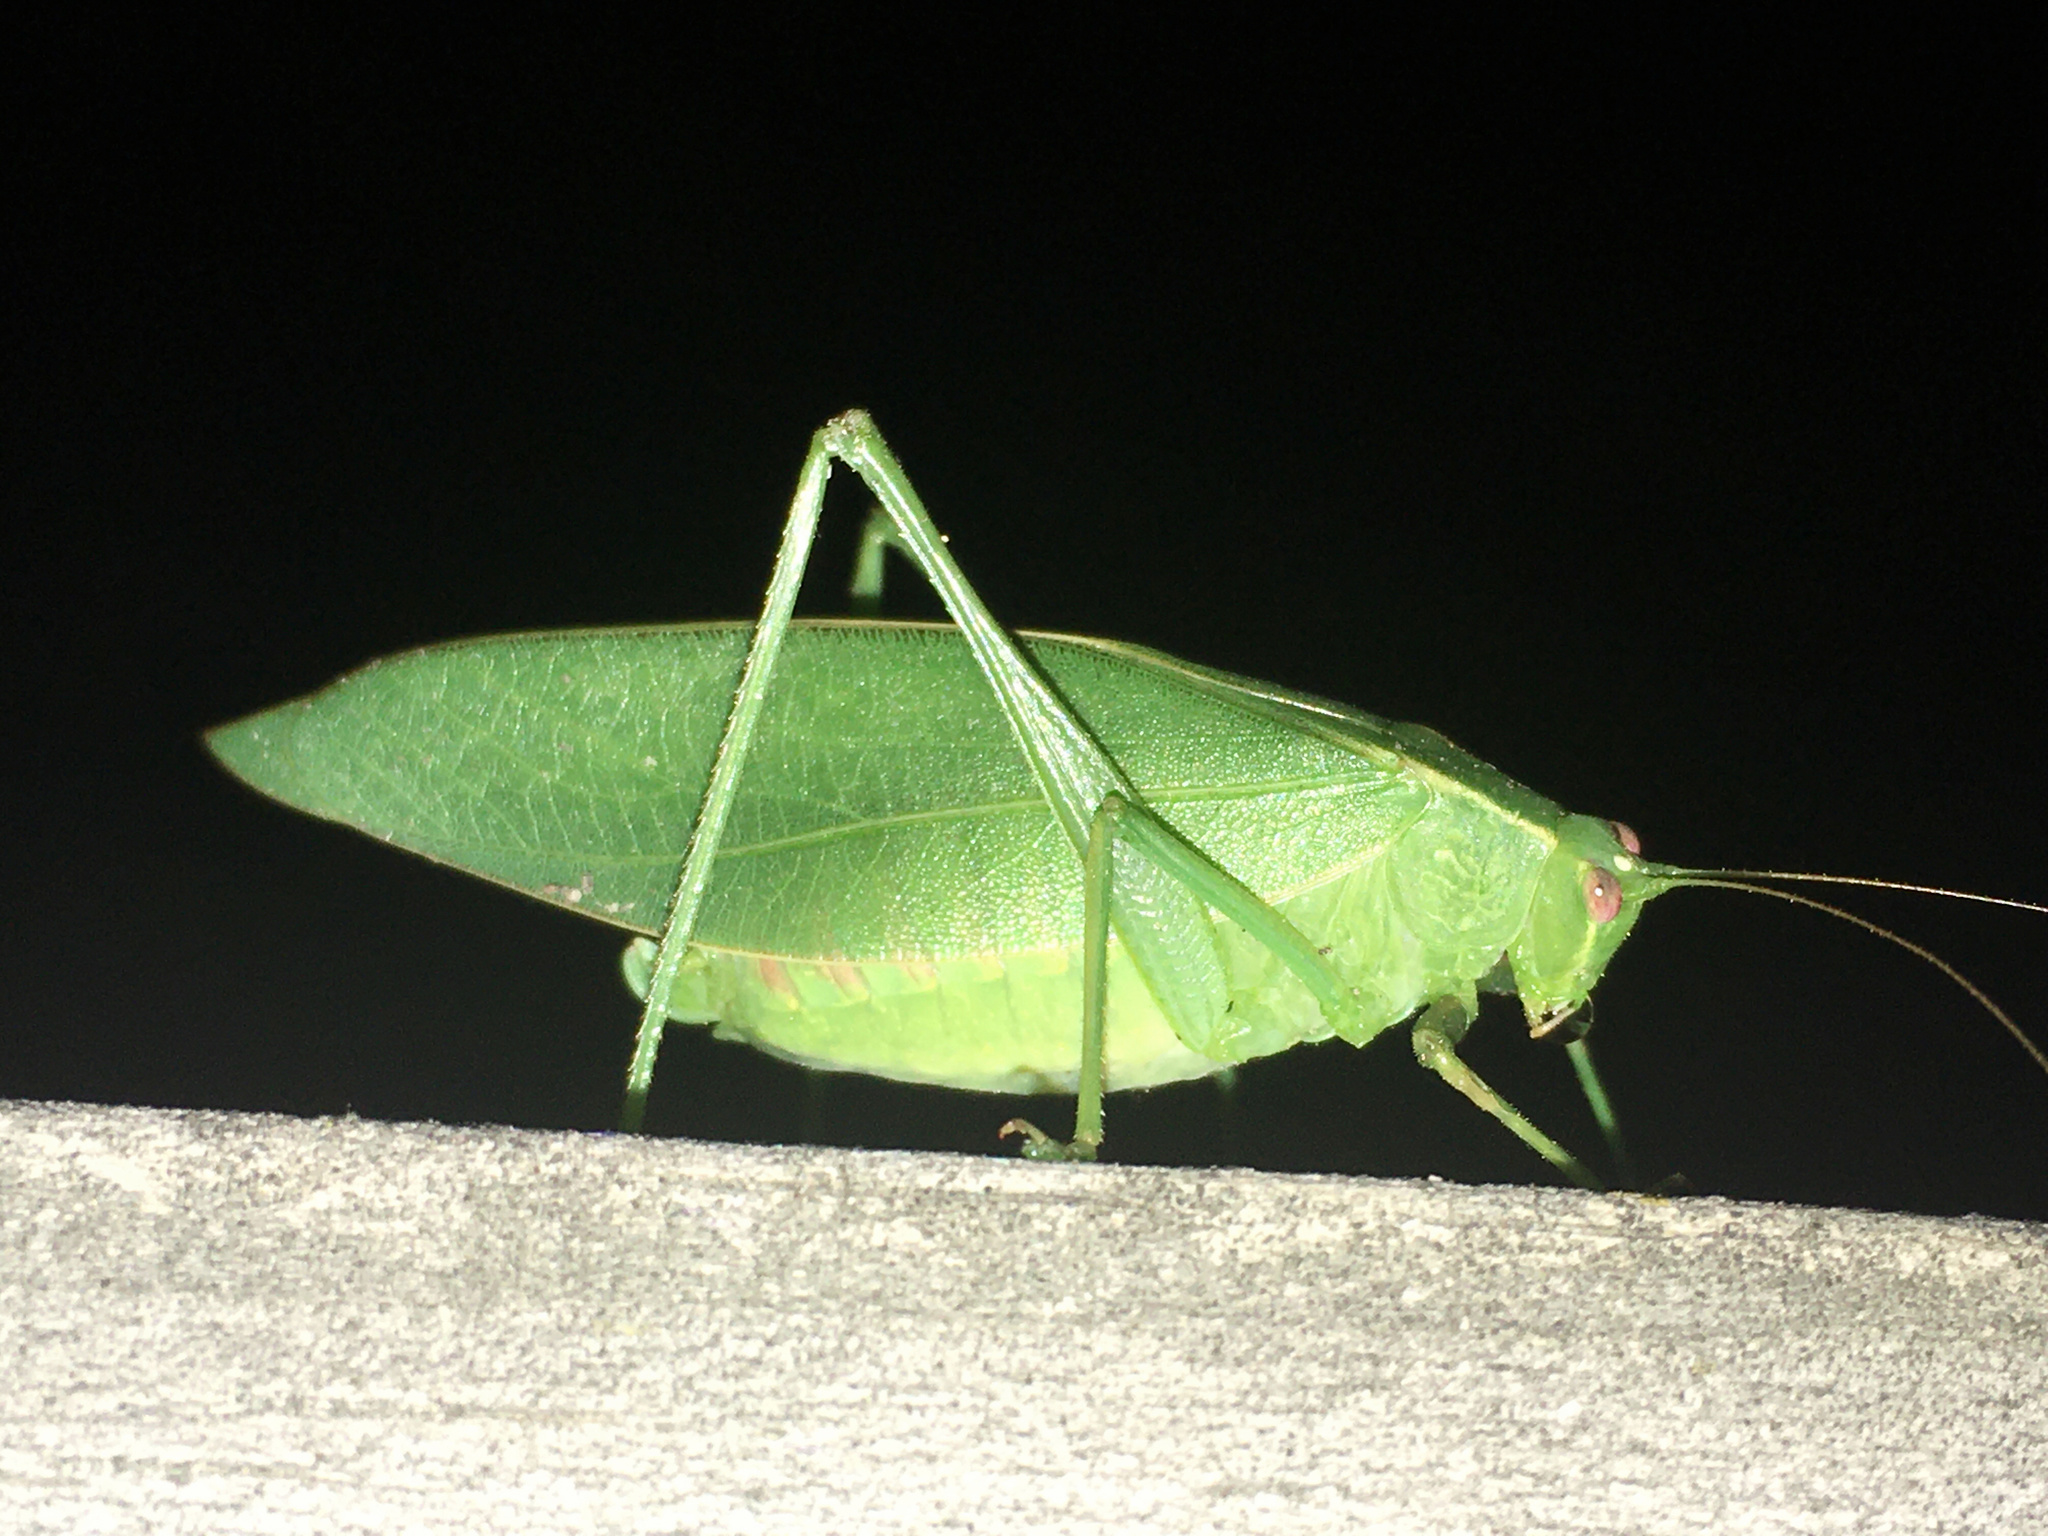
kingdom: Animalia
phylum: Arthropoda
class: Insecta
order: Orthoptera
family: Tettigoniidae
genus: Caedicia
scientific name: Caedicia simplex
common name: Common garden katydid
